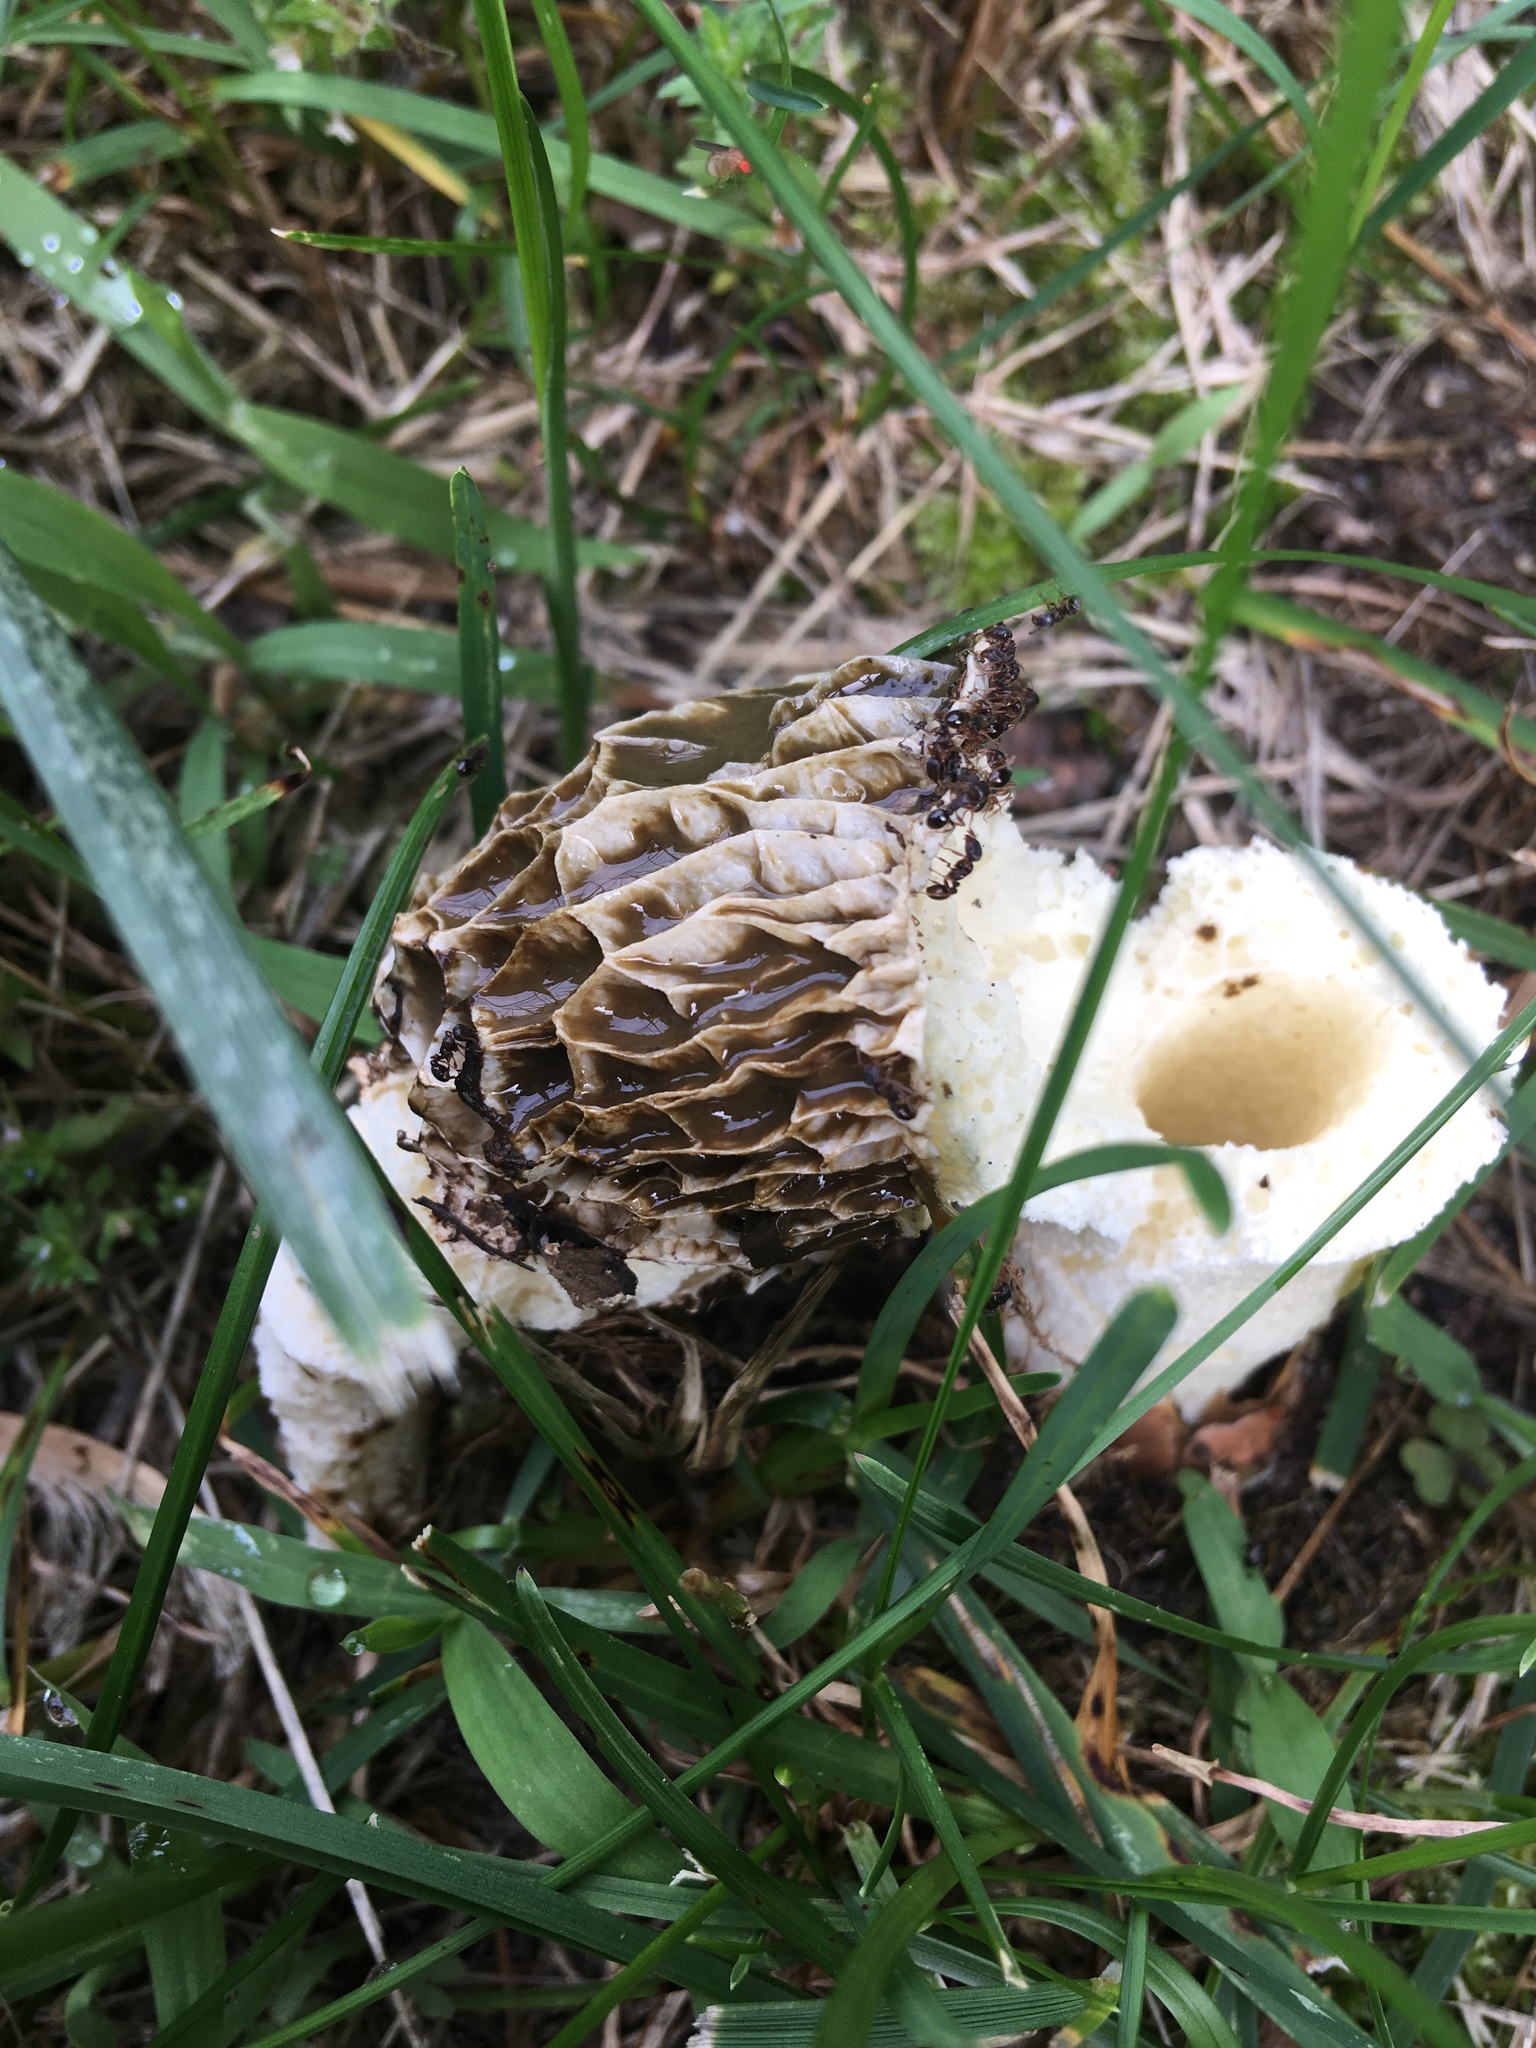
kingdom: Fungi
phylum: Basidiomycota
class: Agaricomycetes
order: Phallales
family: Phallaceae
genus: Phallus
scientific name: Phallus
